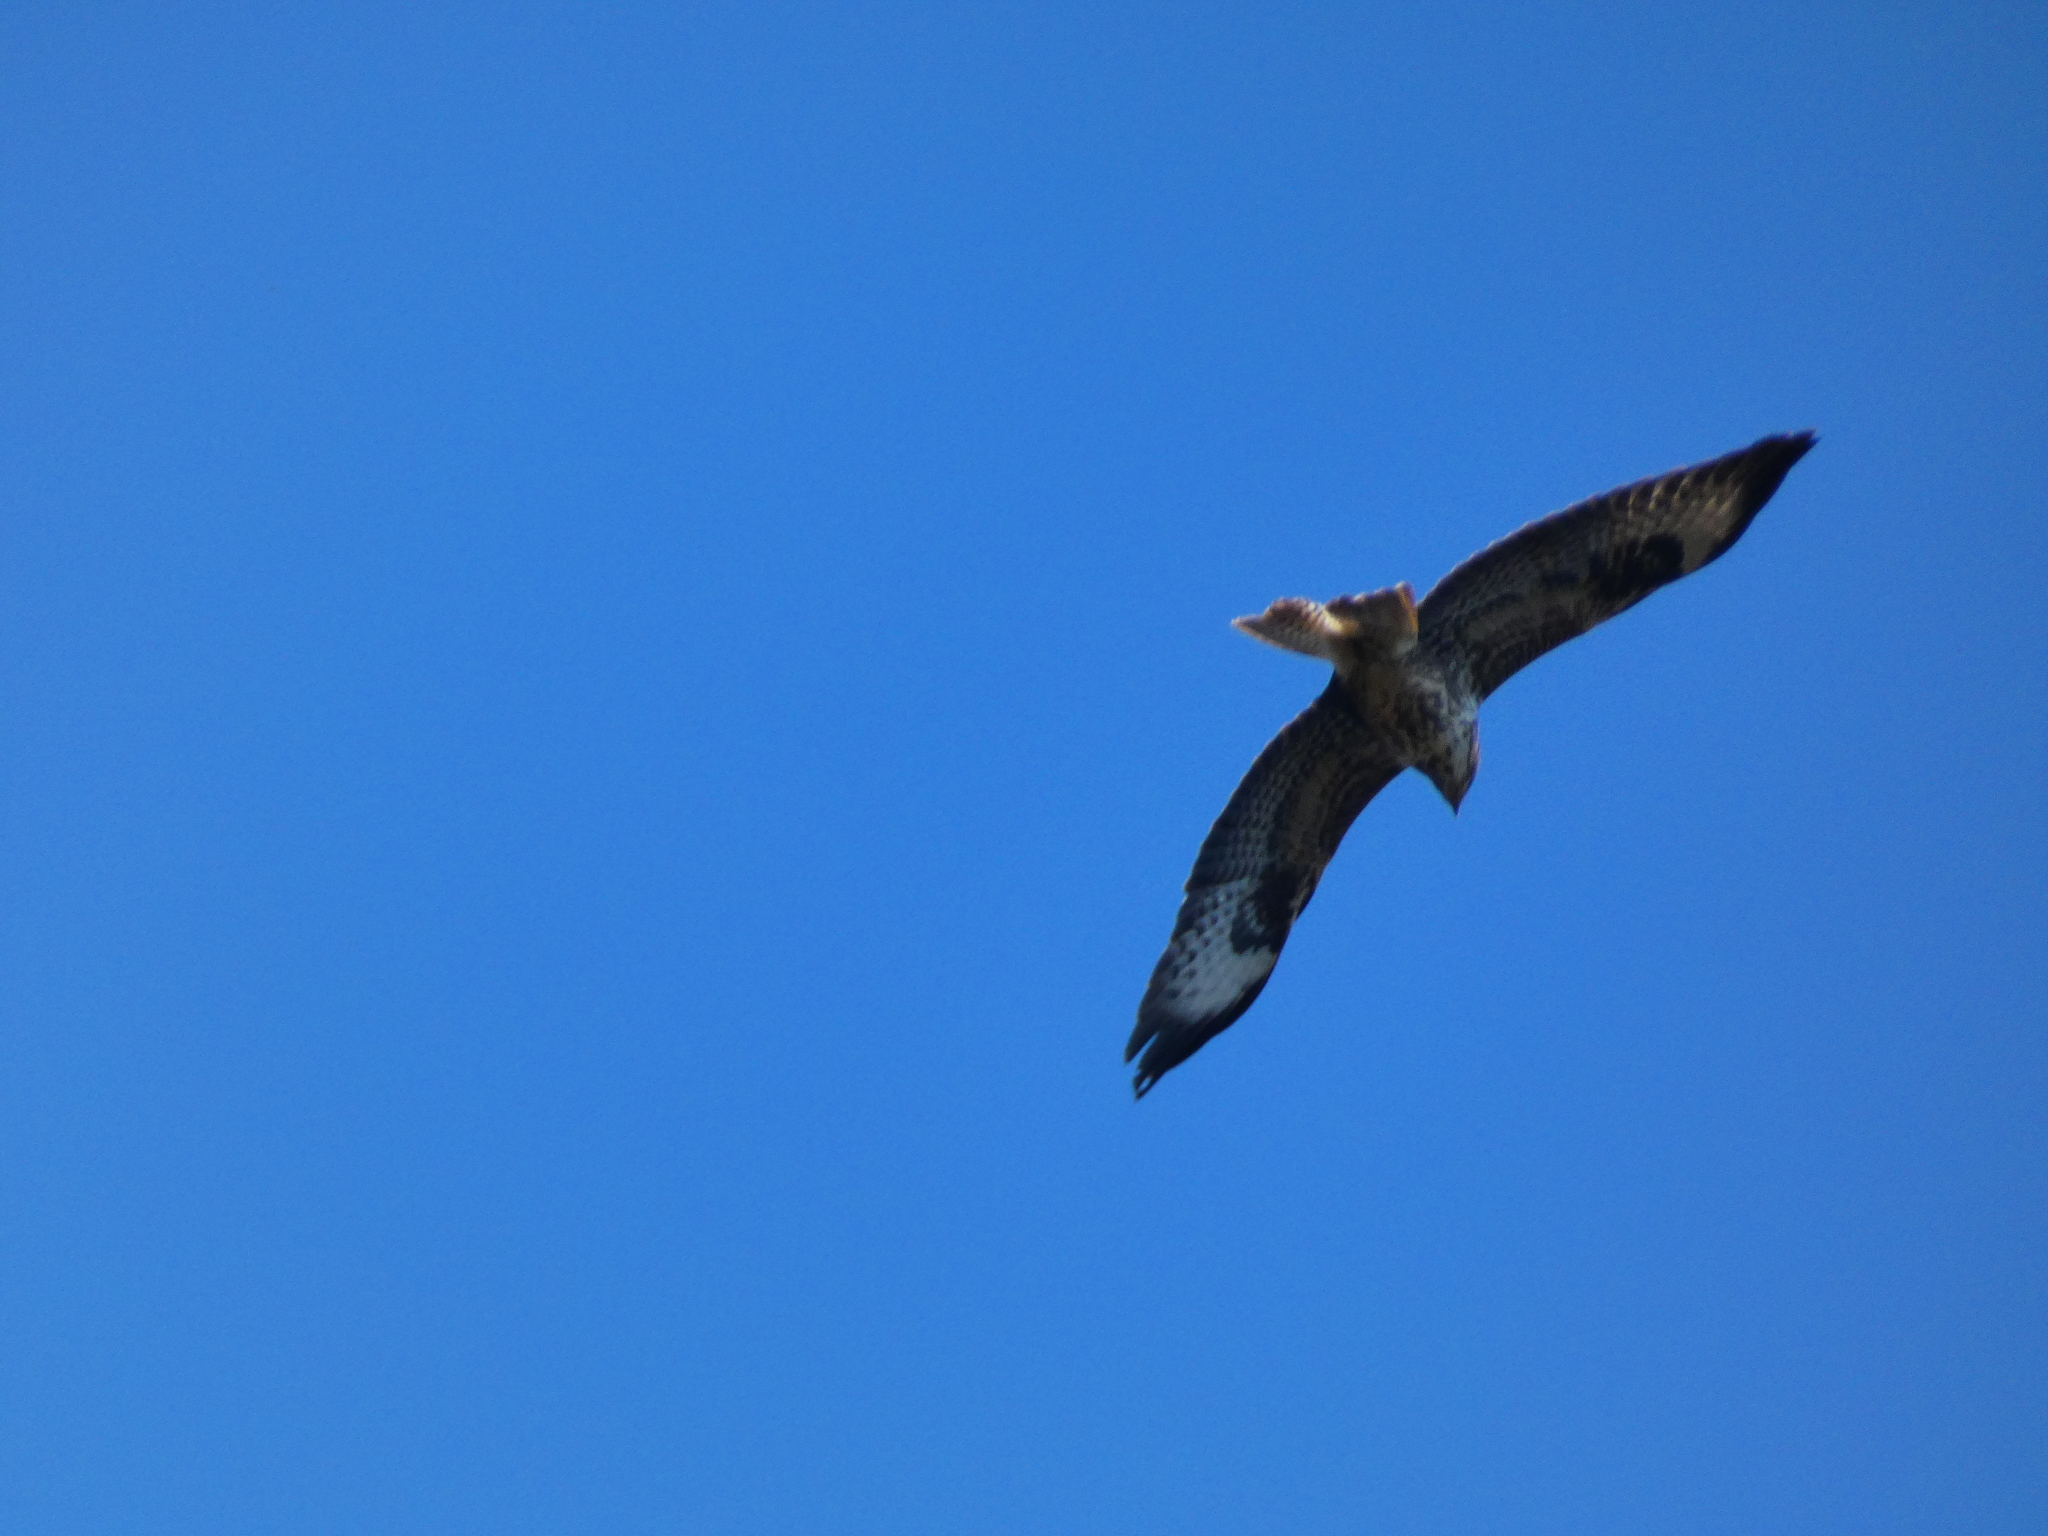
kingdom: Animalia
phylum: Chordata
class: Aves
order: Accipitriformes
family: Accipitridae
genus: Buteo
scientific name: Buteo buteo
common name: Common buzzard
